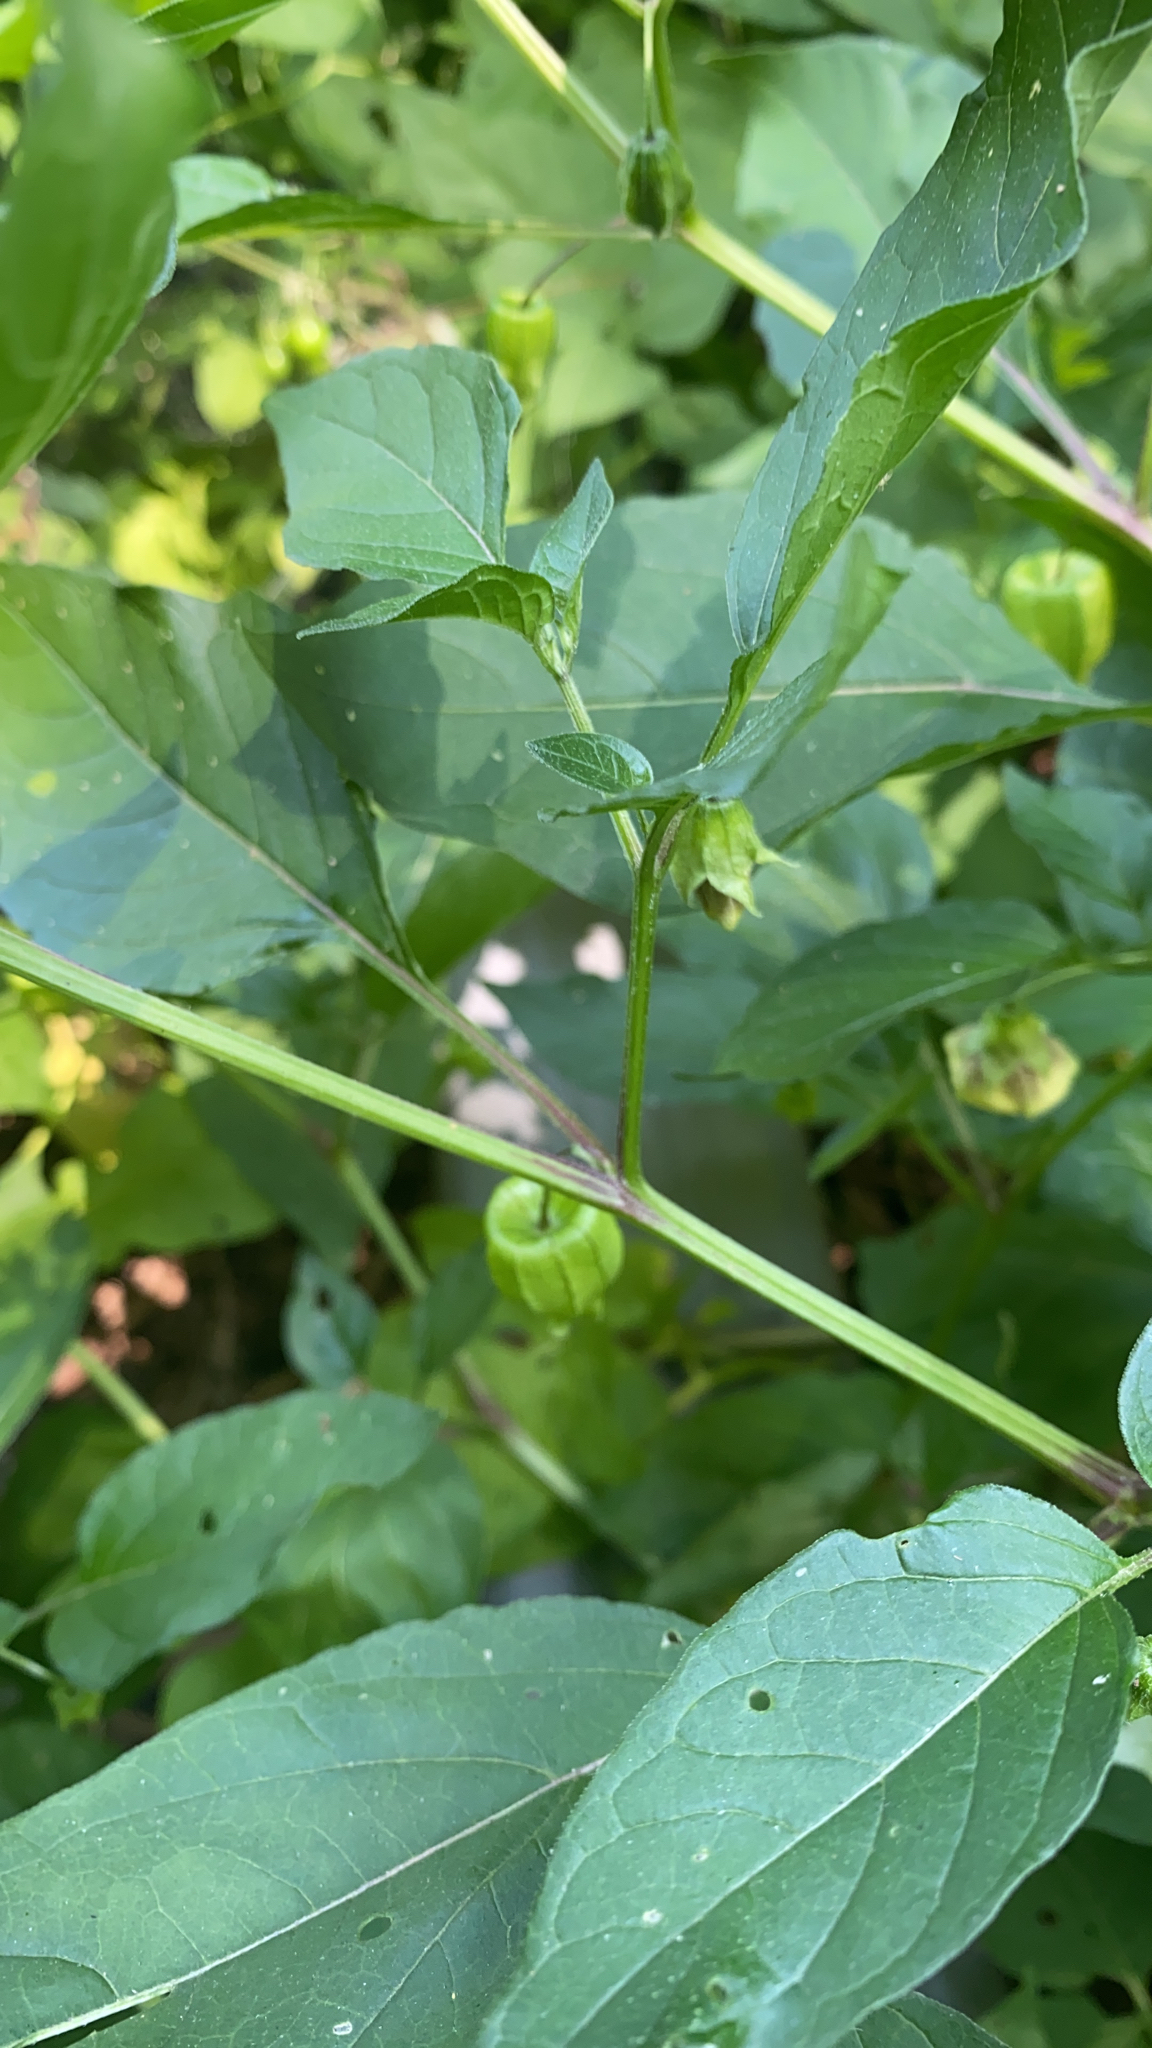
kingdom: Plantae
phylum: Tracheophyta
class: Magnoliopsida
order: Solanales
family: Solanaceae
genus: Physalis
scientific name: Physalis longifolia
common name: Common ground-cherry
